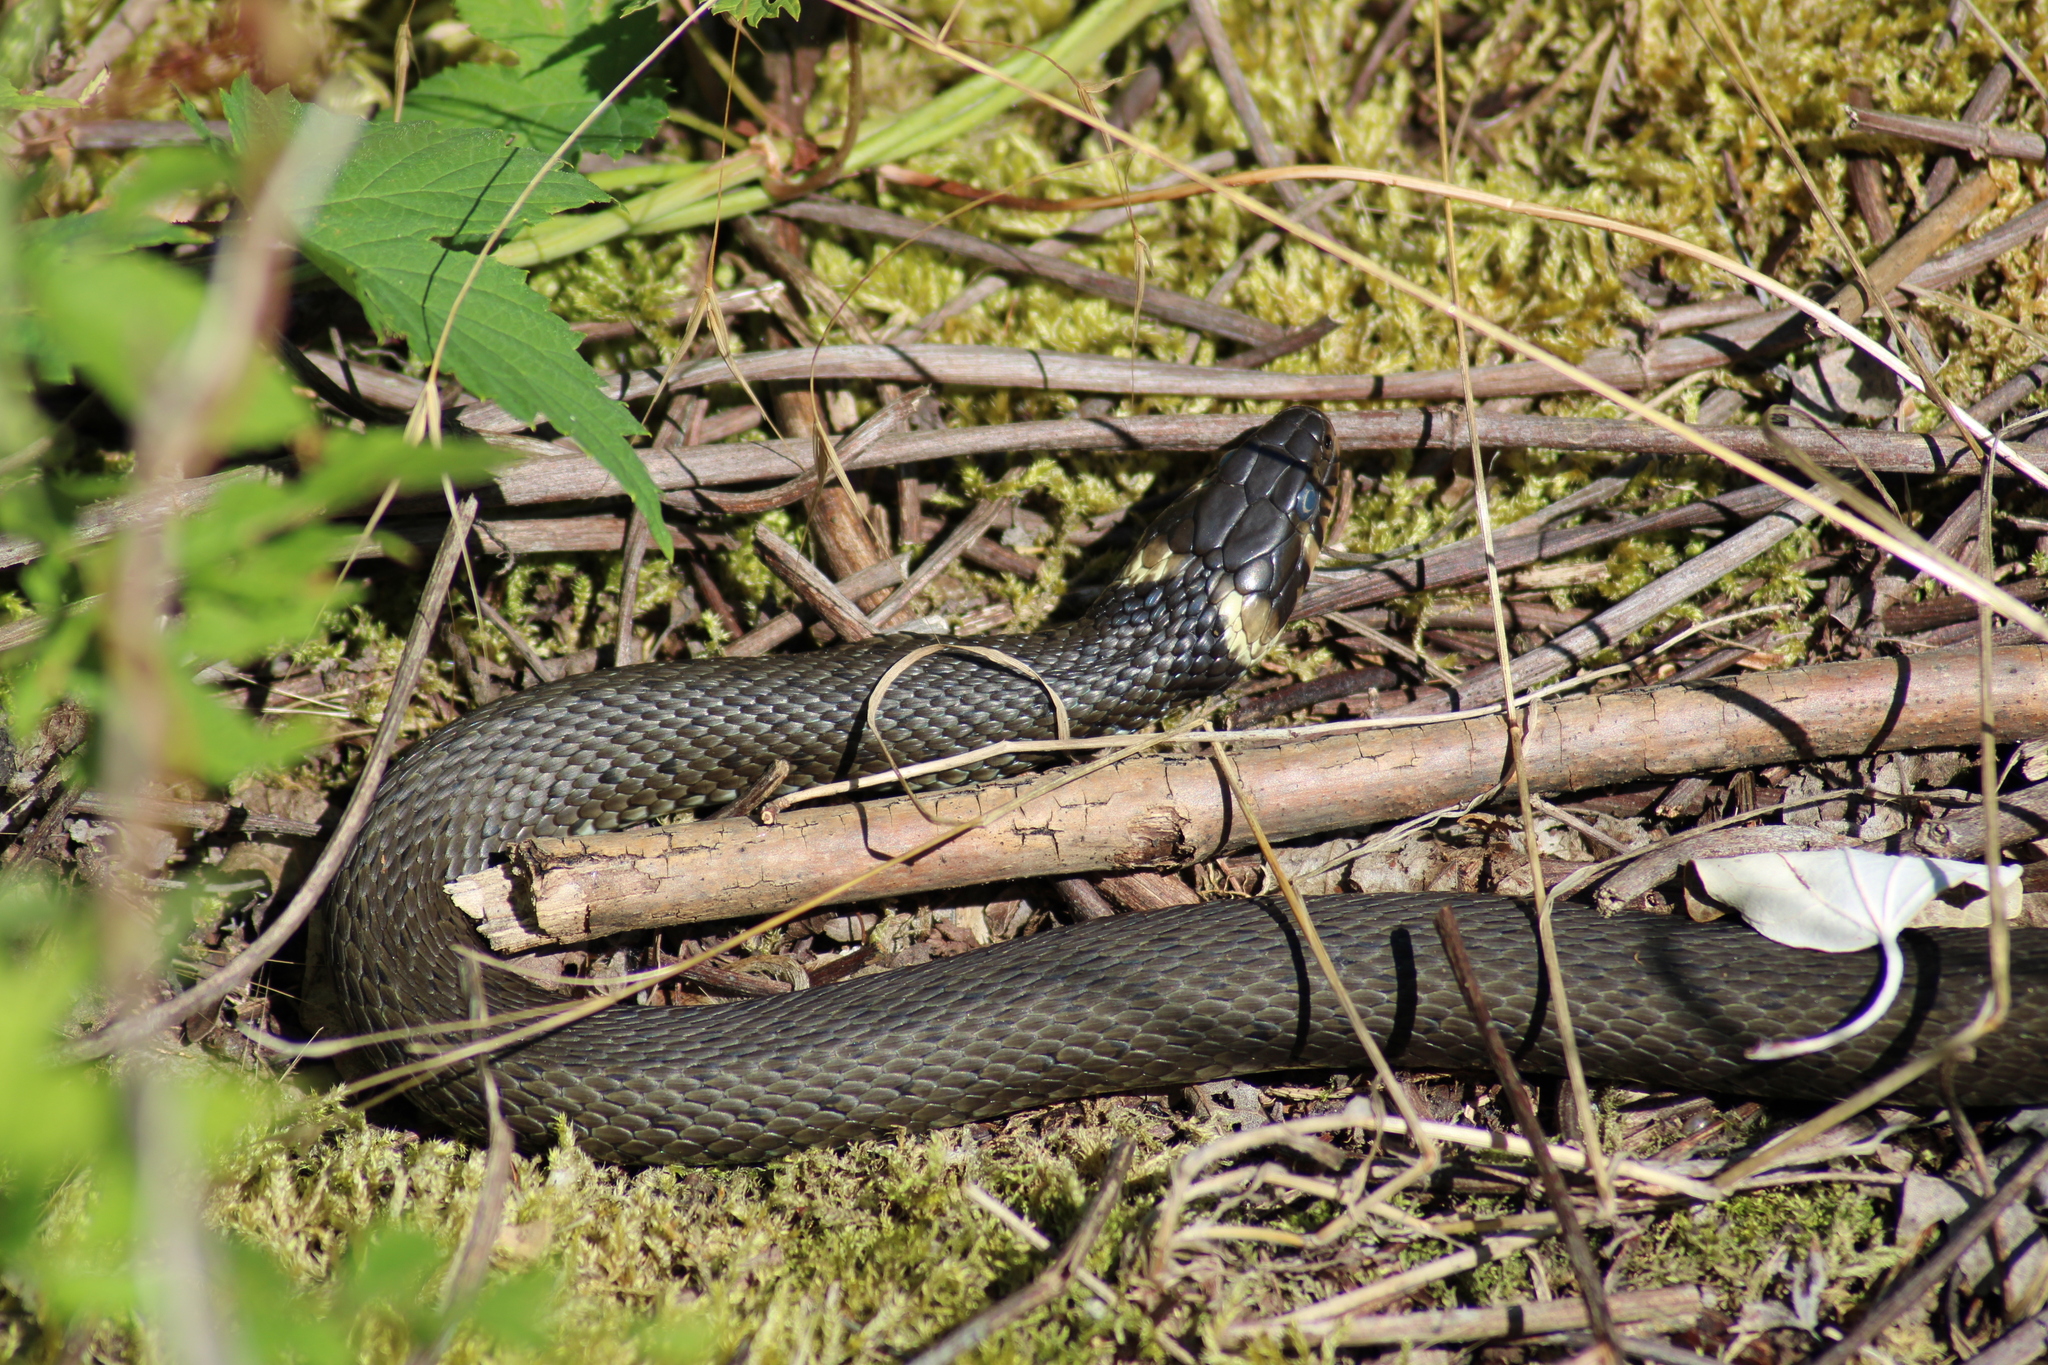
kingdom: Animalia
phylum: Chordata
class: Squamata
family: Colubridae
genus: Natrix
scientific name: Natrix natrix
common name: Grass snake
